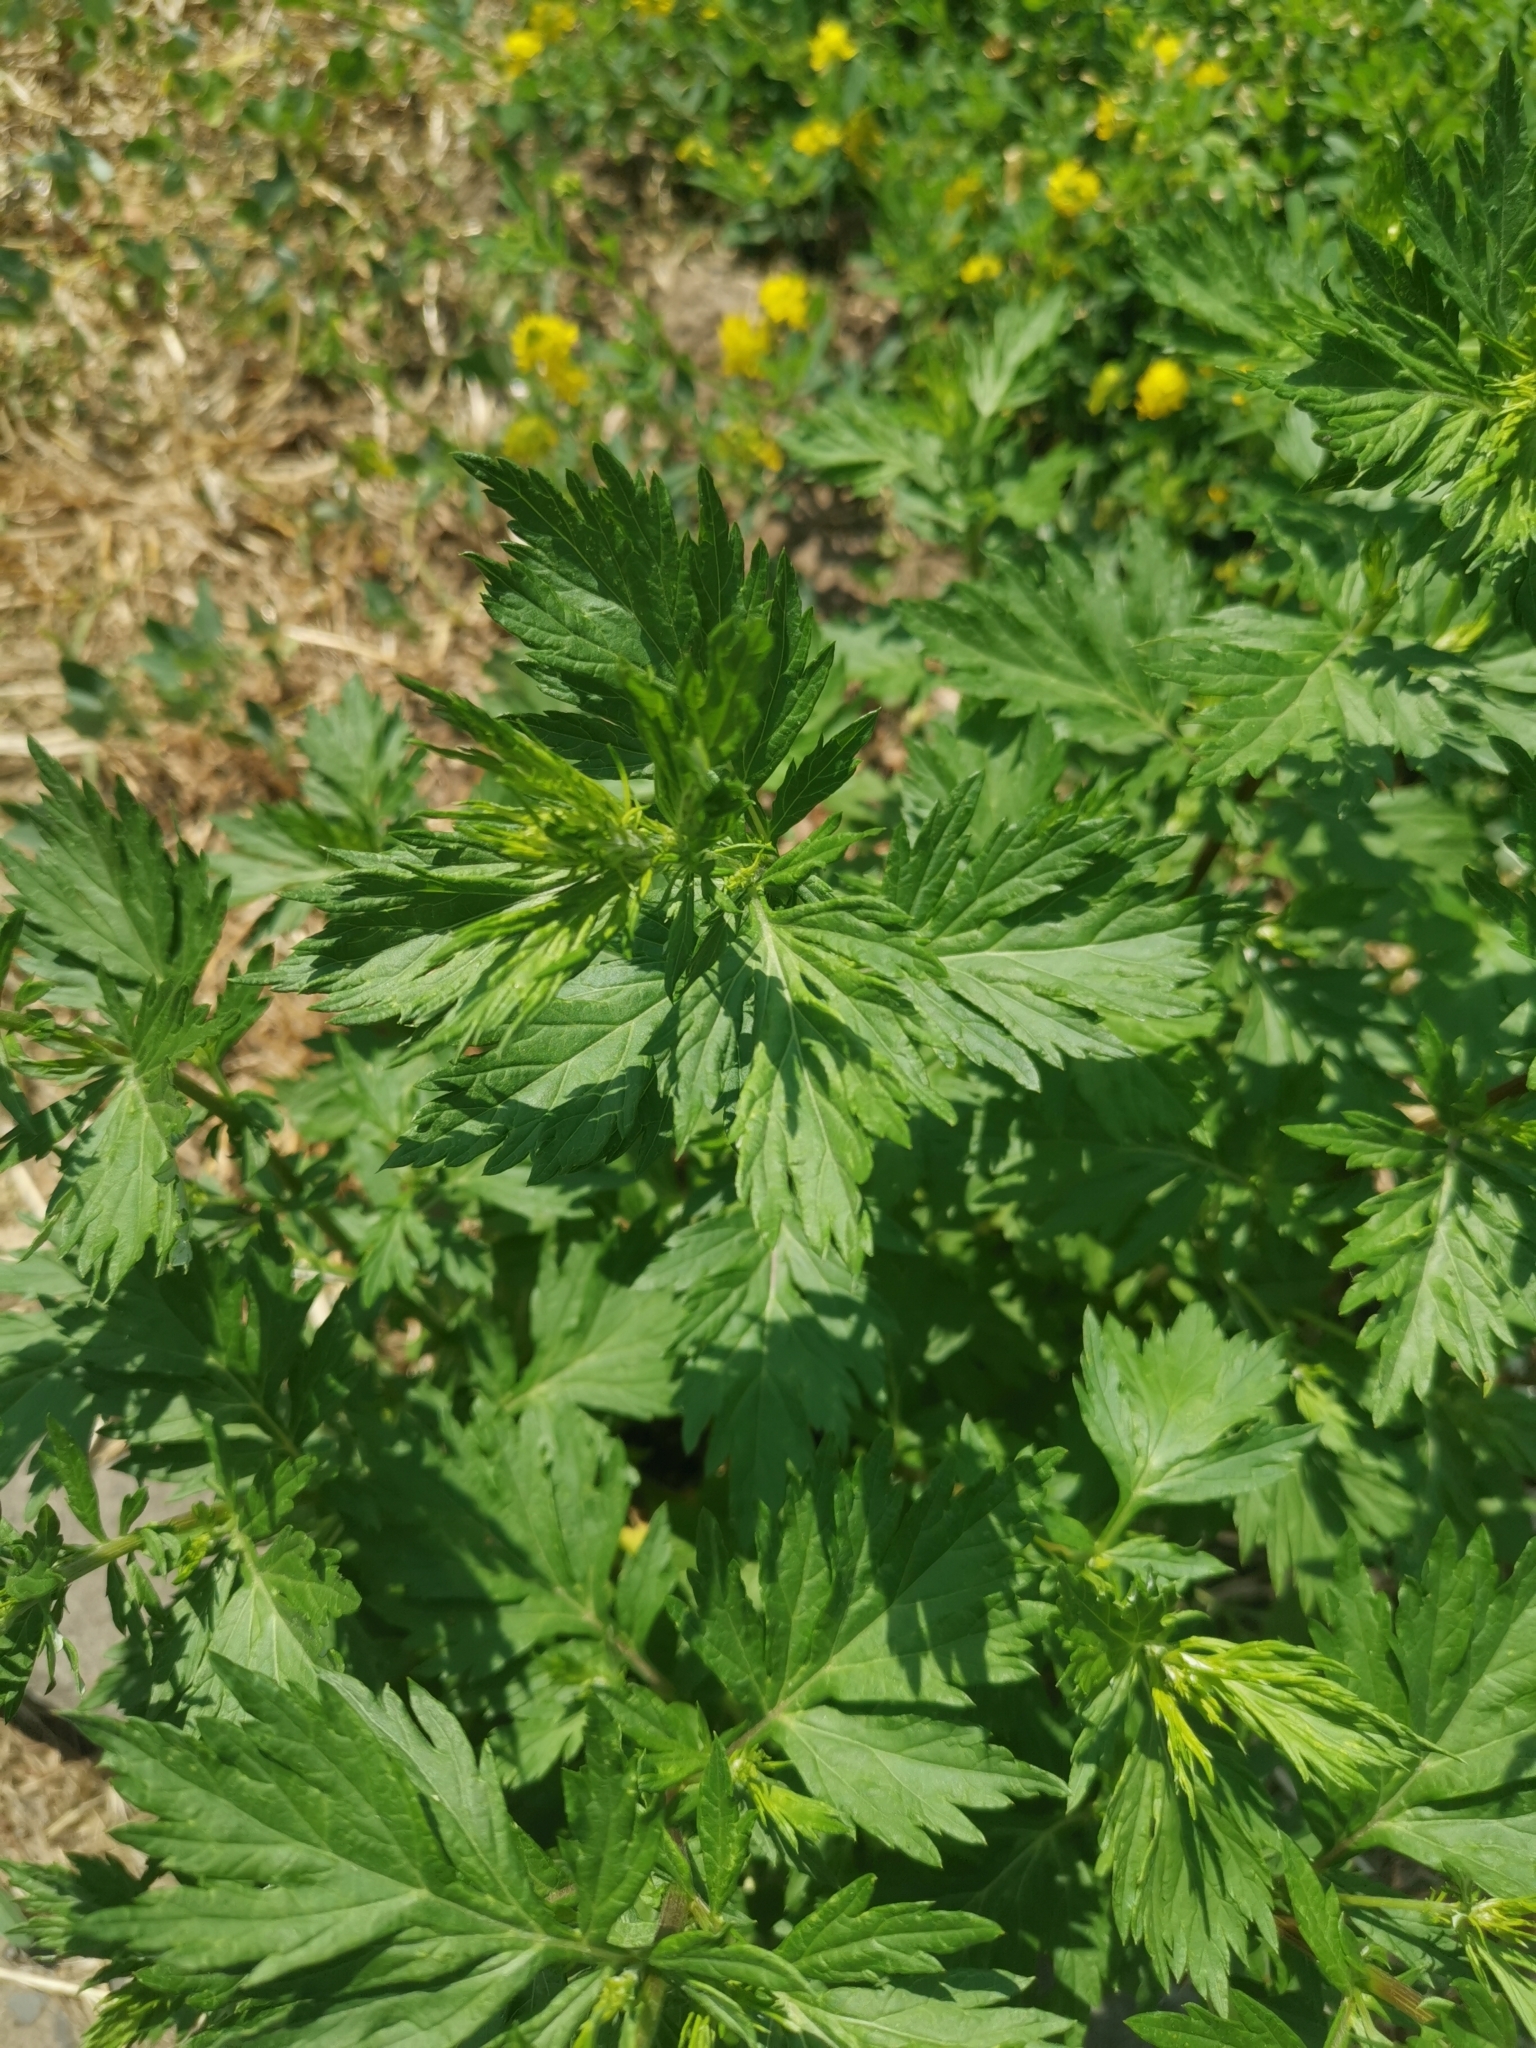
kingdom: Plantae
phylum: Tracheophyta
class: Magnoliopsida
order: Asterales
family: Asteraceae
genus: Artemisia
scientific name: Artemisia vulgaris
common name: Mugwort
